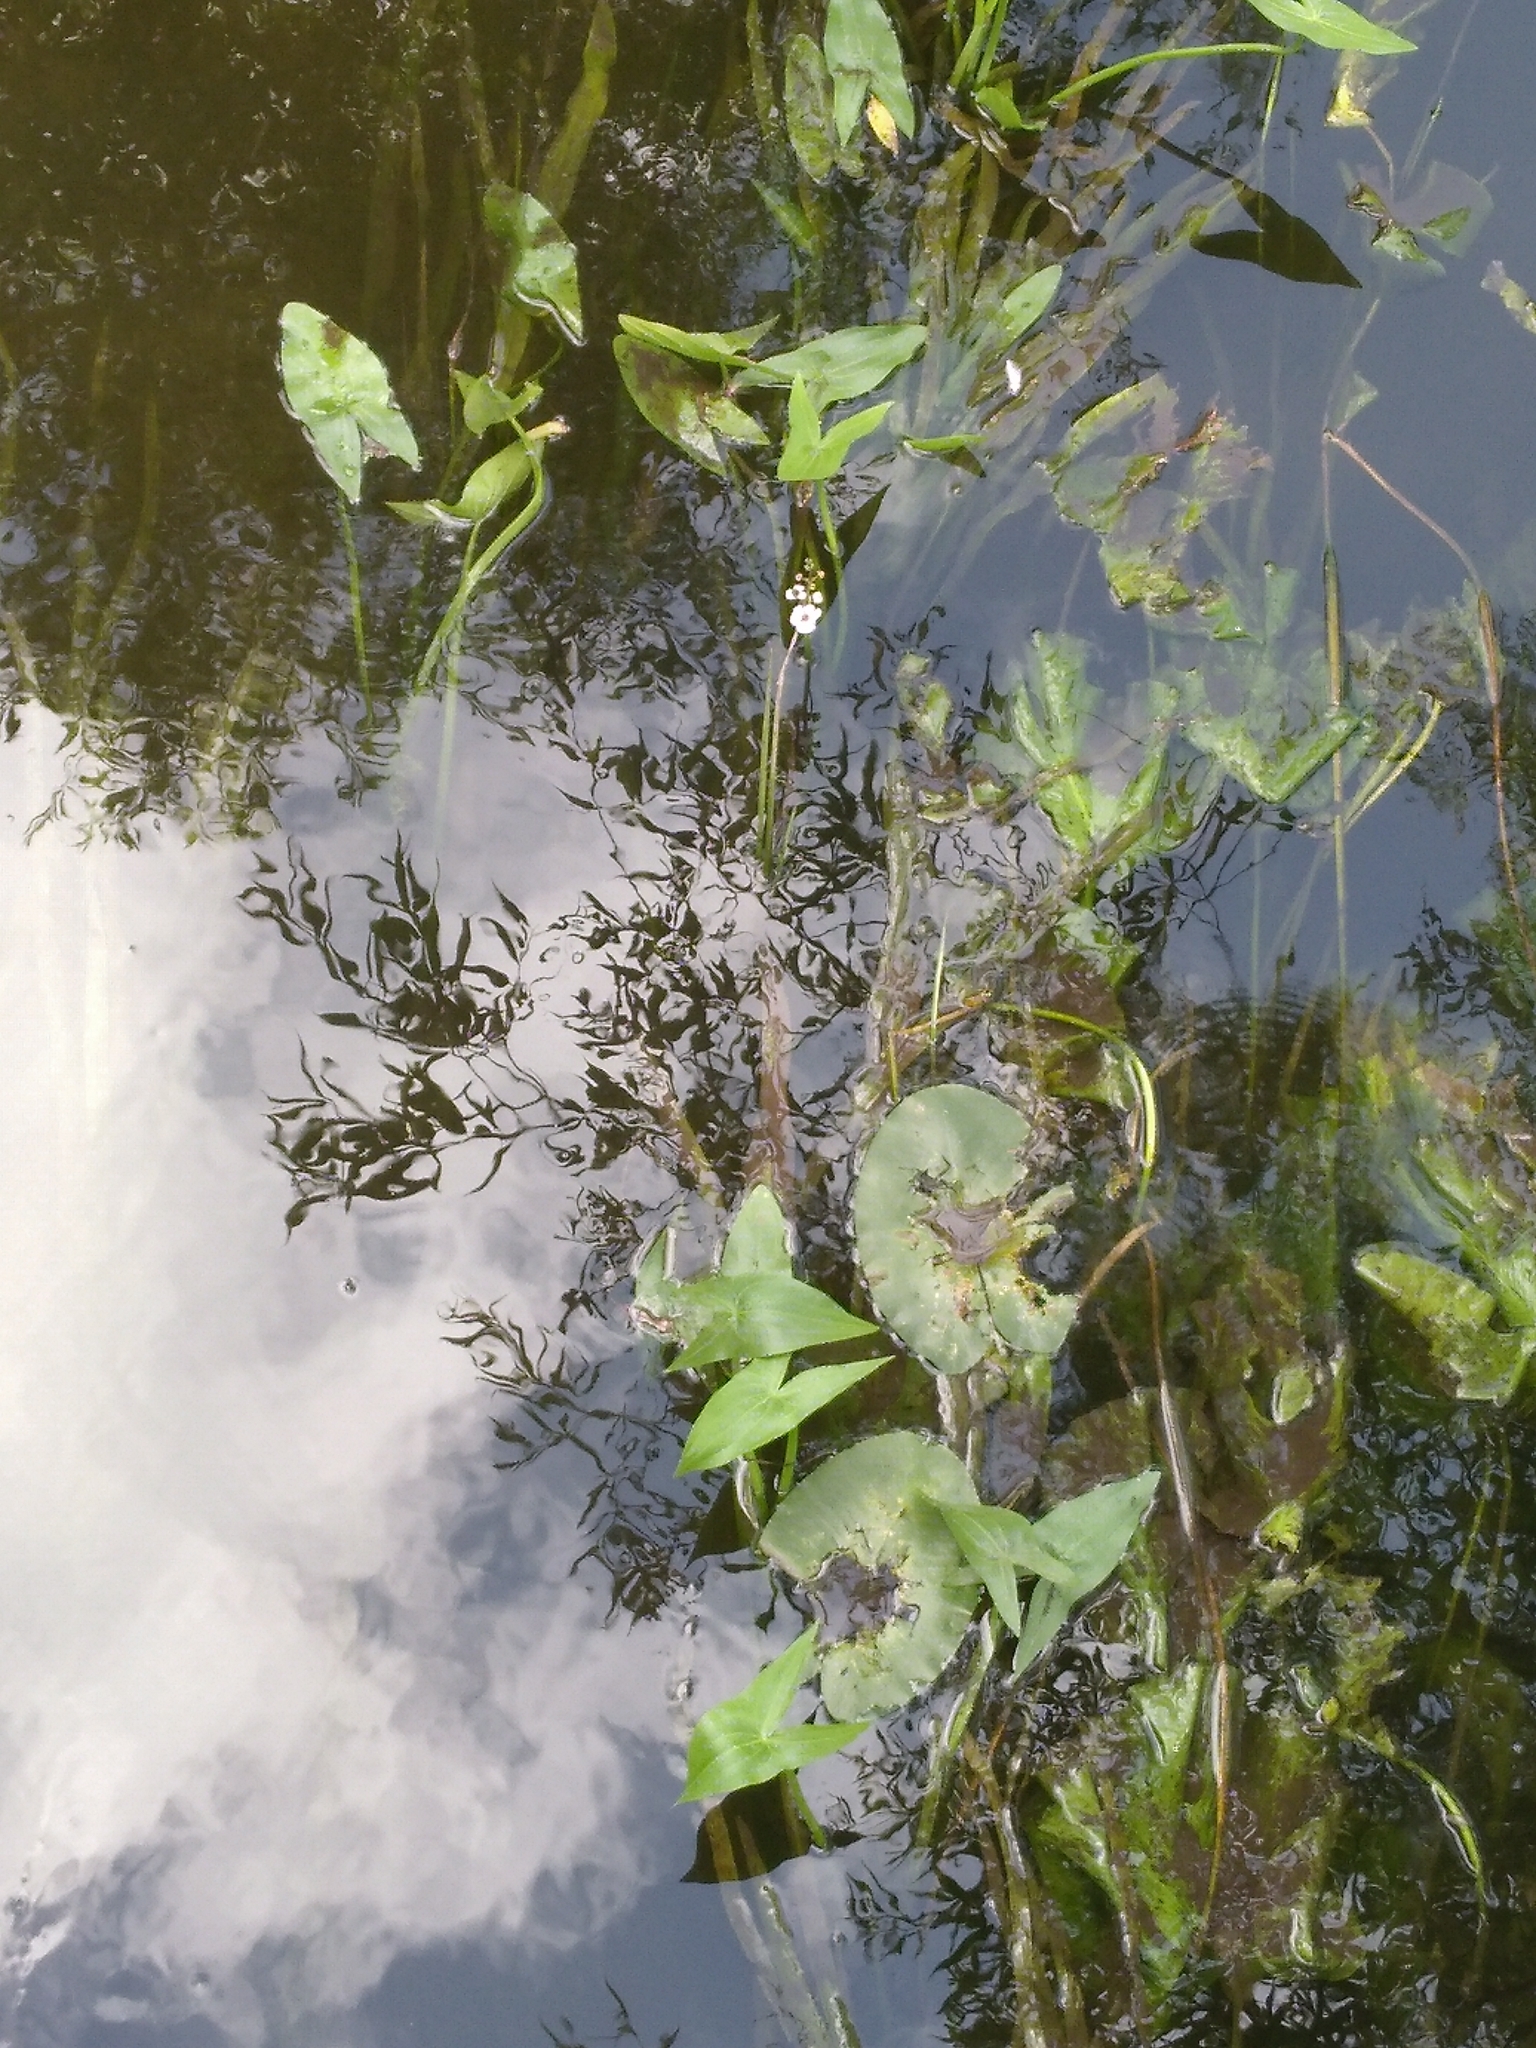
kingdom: Plantae
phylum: Tracheophyta
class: Liliopsida
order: Alismatales
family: Alismataceae
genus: Sagittaria
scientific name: Sagittaria sagittifolia
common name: Arrowhead
